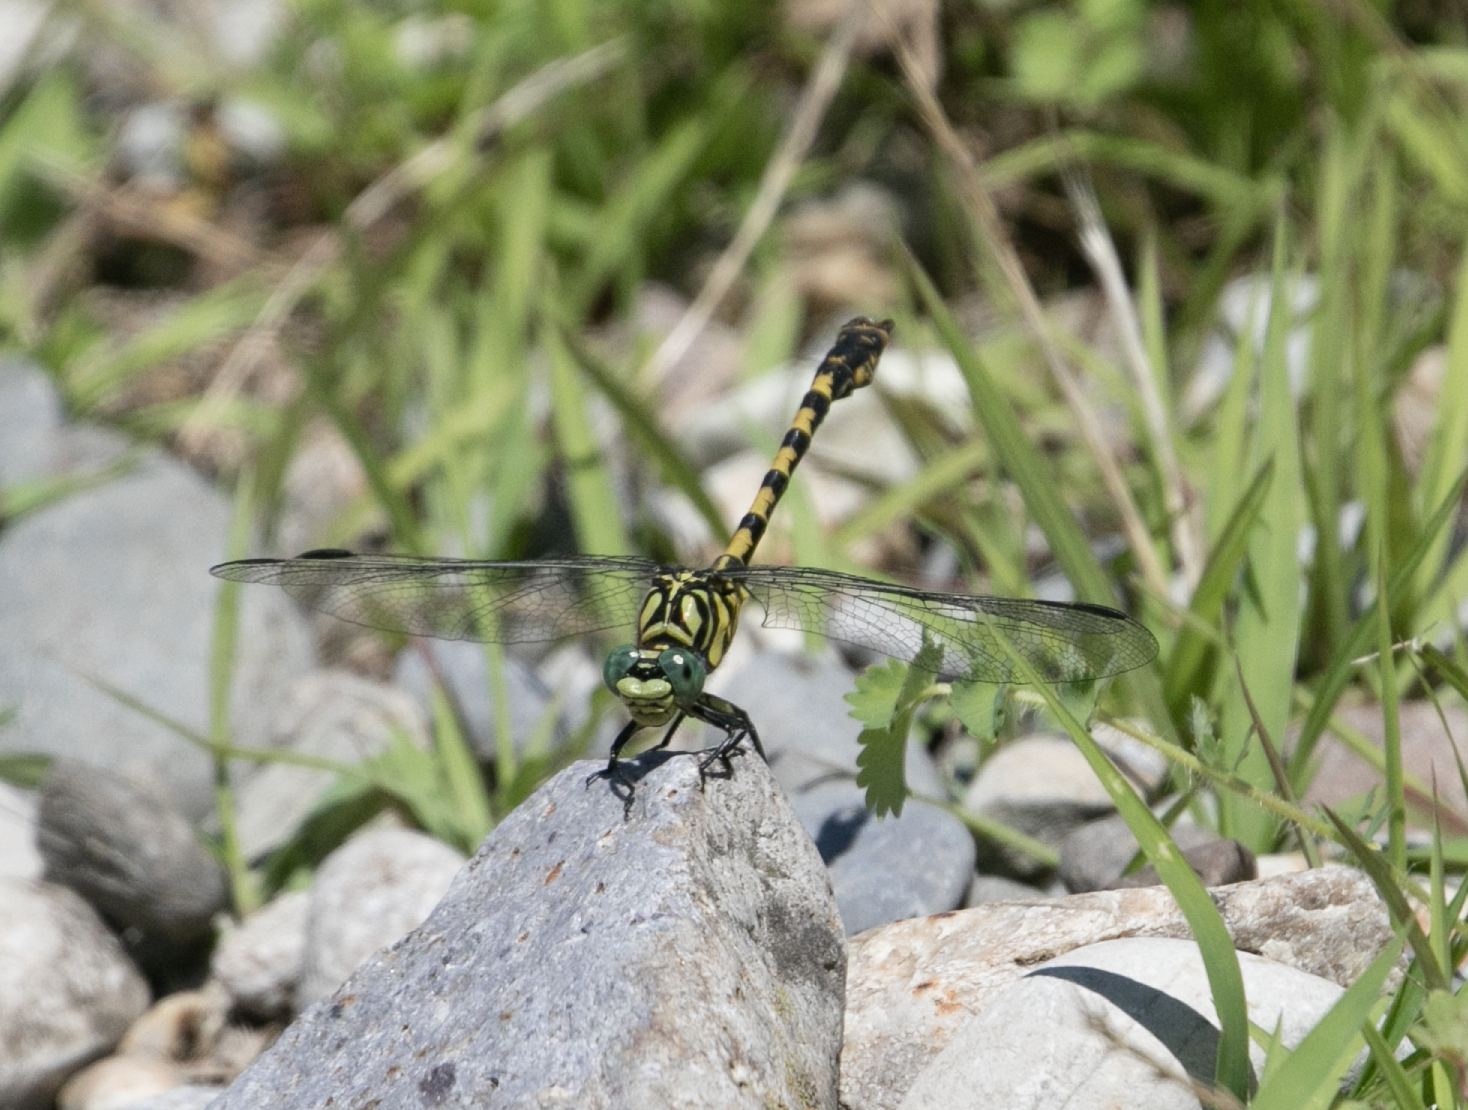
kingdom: Animalia
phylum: Arthropoda
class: Insecta
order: Odonata
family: Gomphidae
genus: Onychogomphus
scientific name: Onychogomphus forcipatus
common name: Small pincertail
